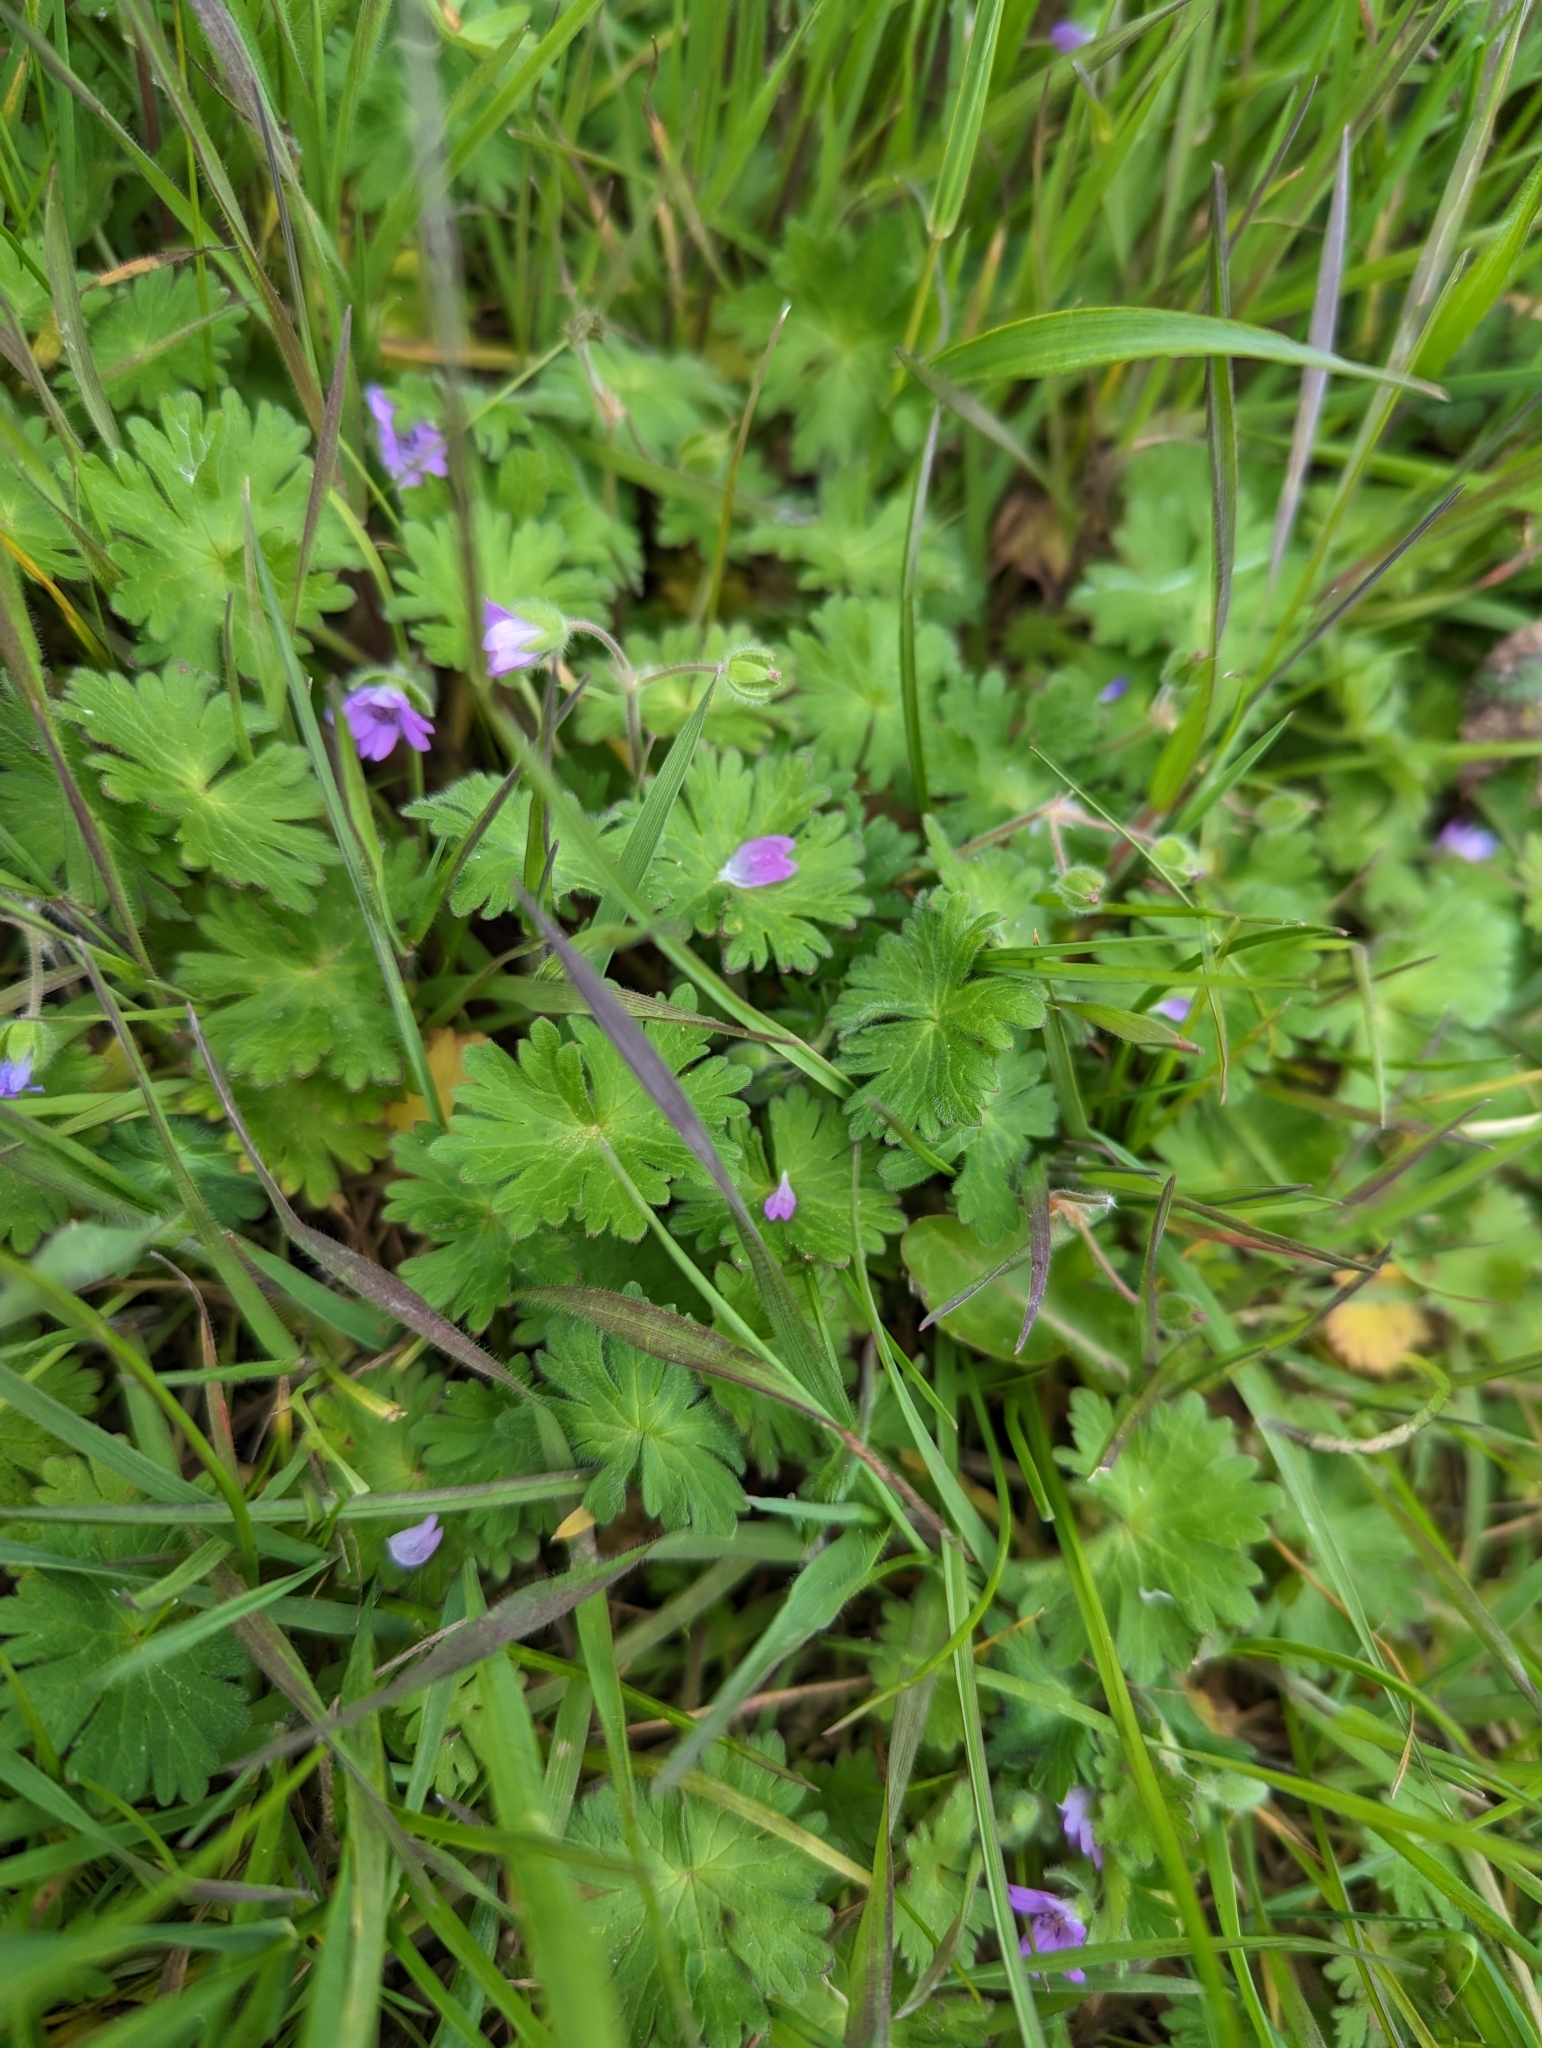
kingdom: Plantae
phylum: Tracheophyta
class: Magnoliopsida
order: Geraniales
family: Geraniaceae
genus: Geranium
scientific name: Geranium molle
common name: Dove's-foot crane's-bill
